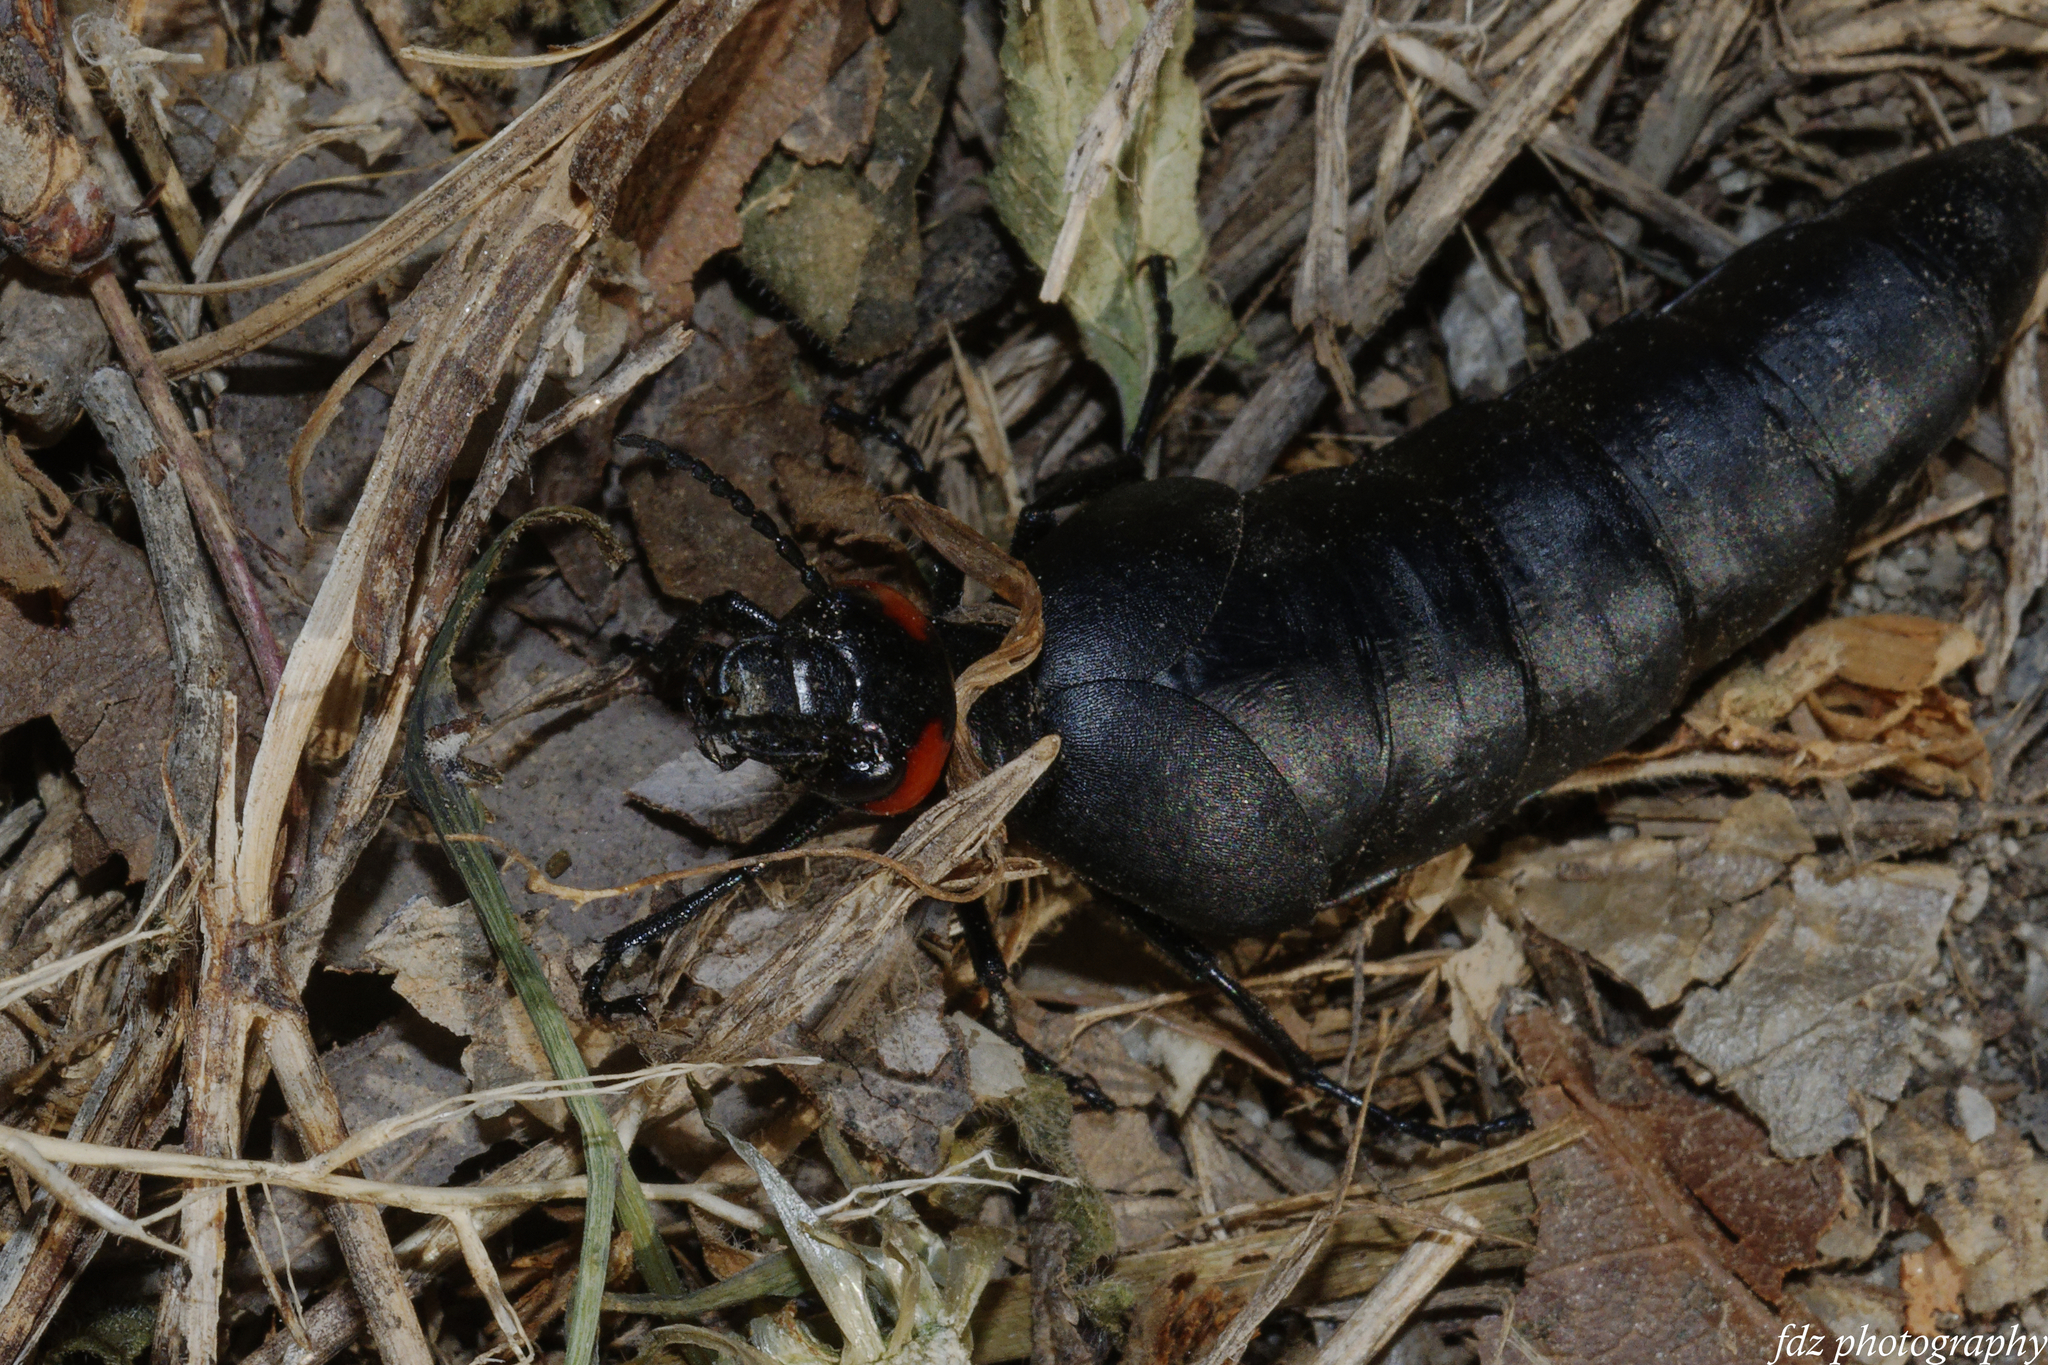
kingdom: Animalia
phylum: Arthropoda
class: Insecta
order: Coleoptera
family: Meloidae
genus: Berberomeloe
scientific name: Berberomeloe insignis
